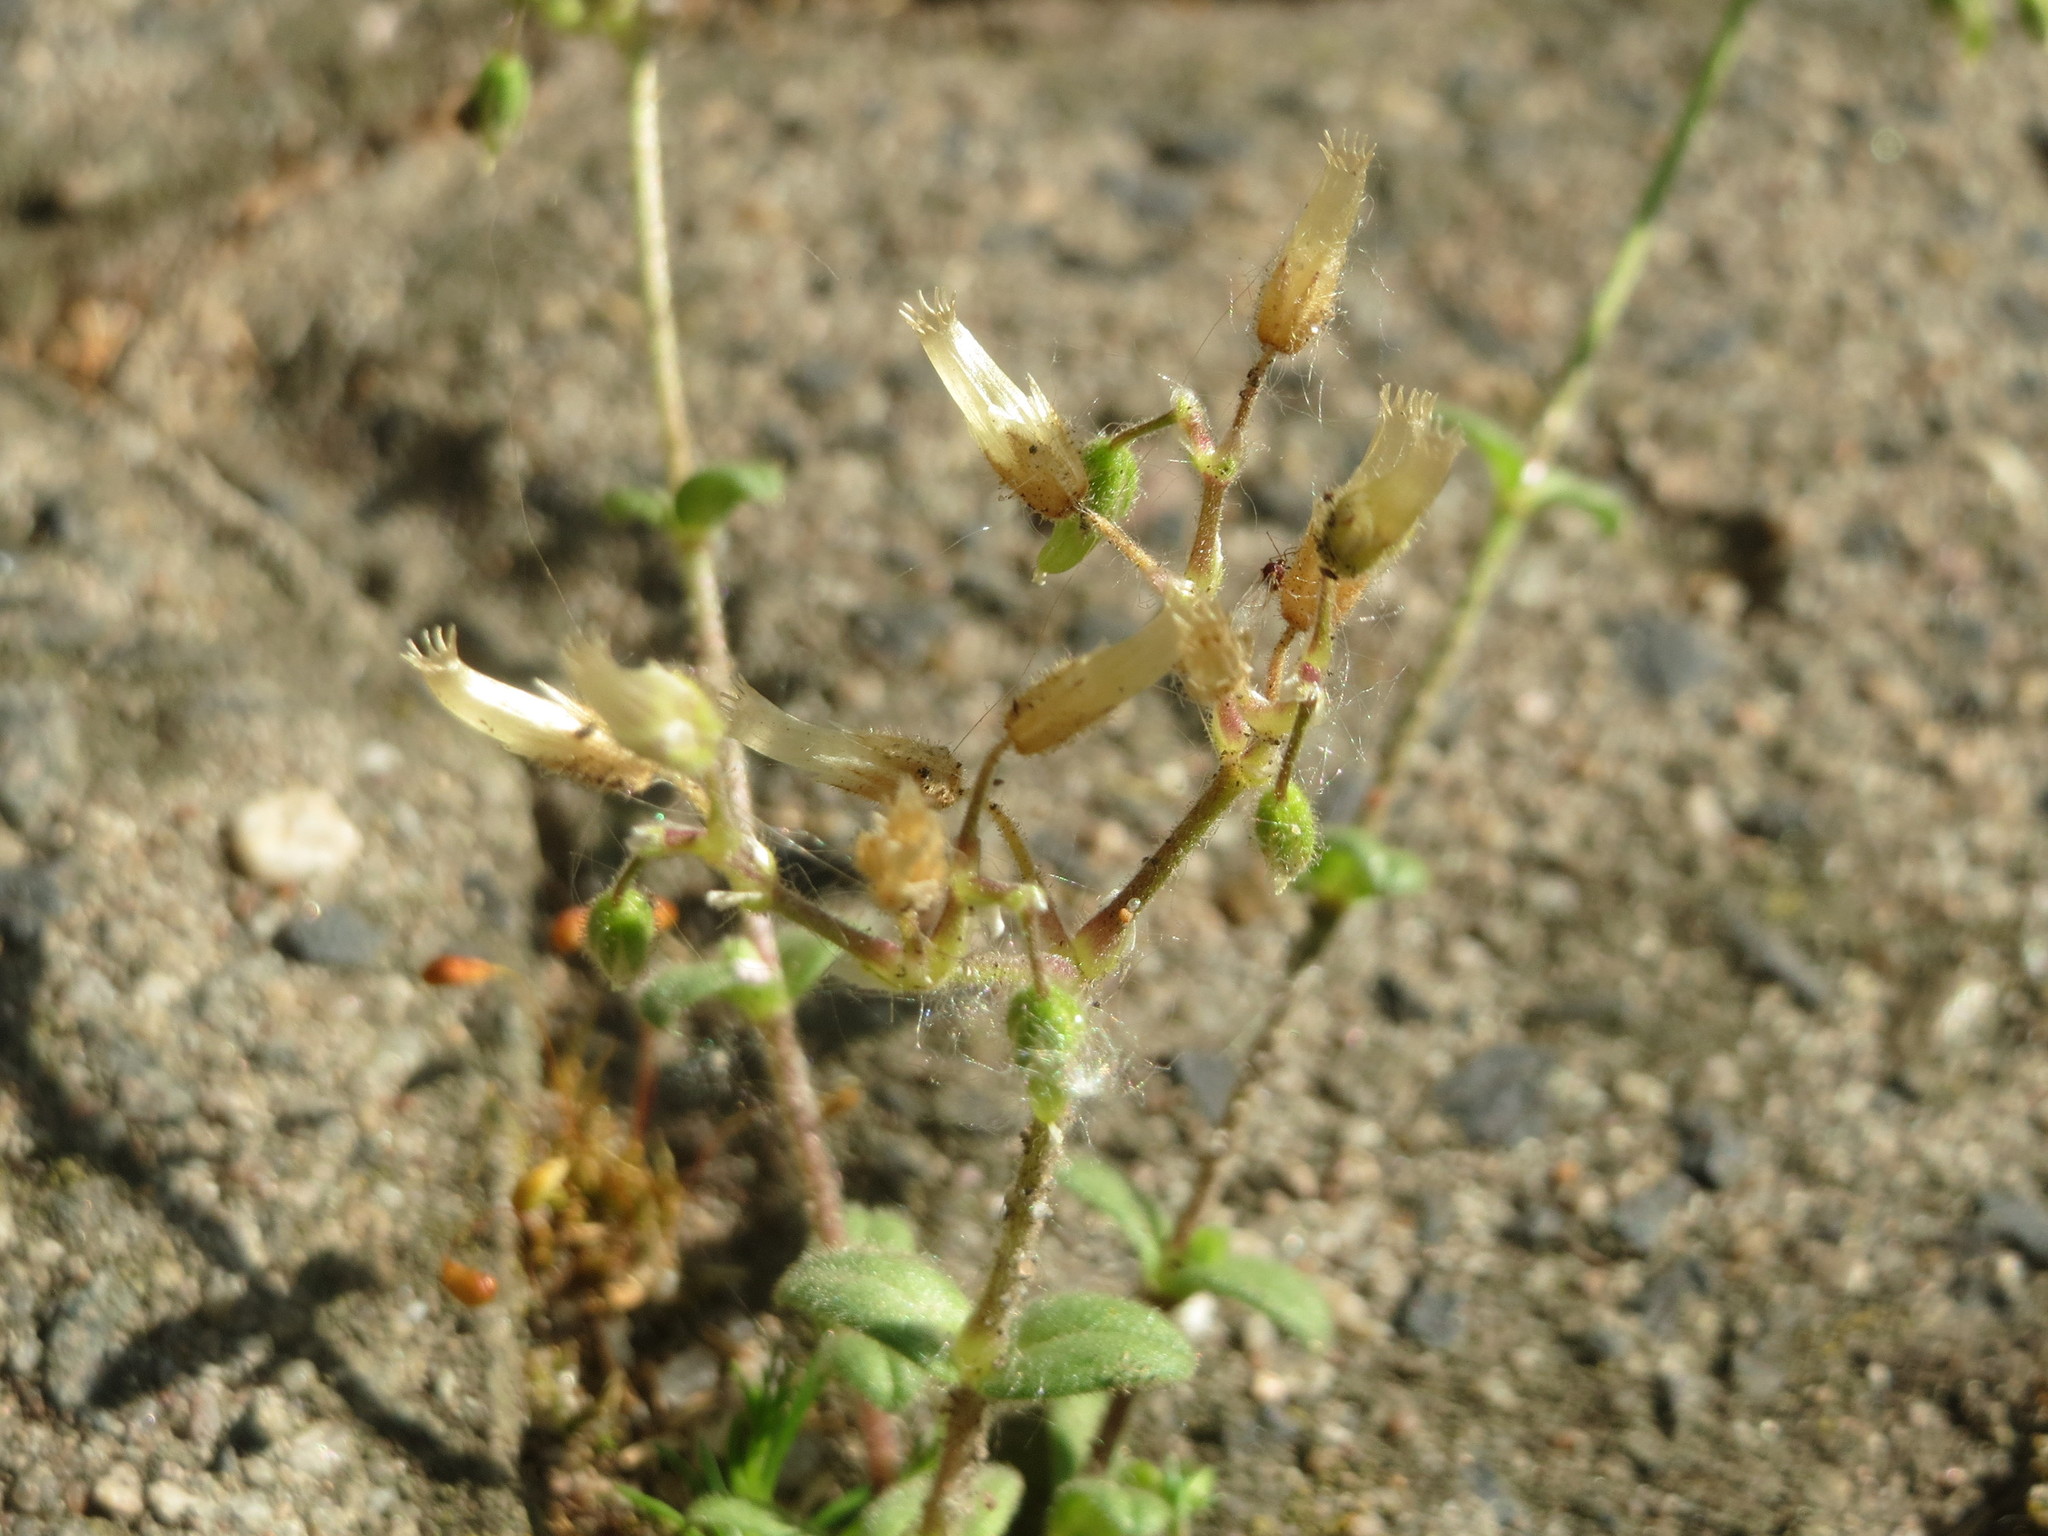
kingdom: Plantae
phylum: Tracheophyta
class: Magnoliopsida
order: Caryophyllales
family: Caryophyllaceae
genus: Cerastium
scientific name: Cerastium semidecandrum
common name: Little mouse-ear
